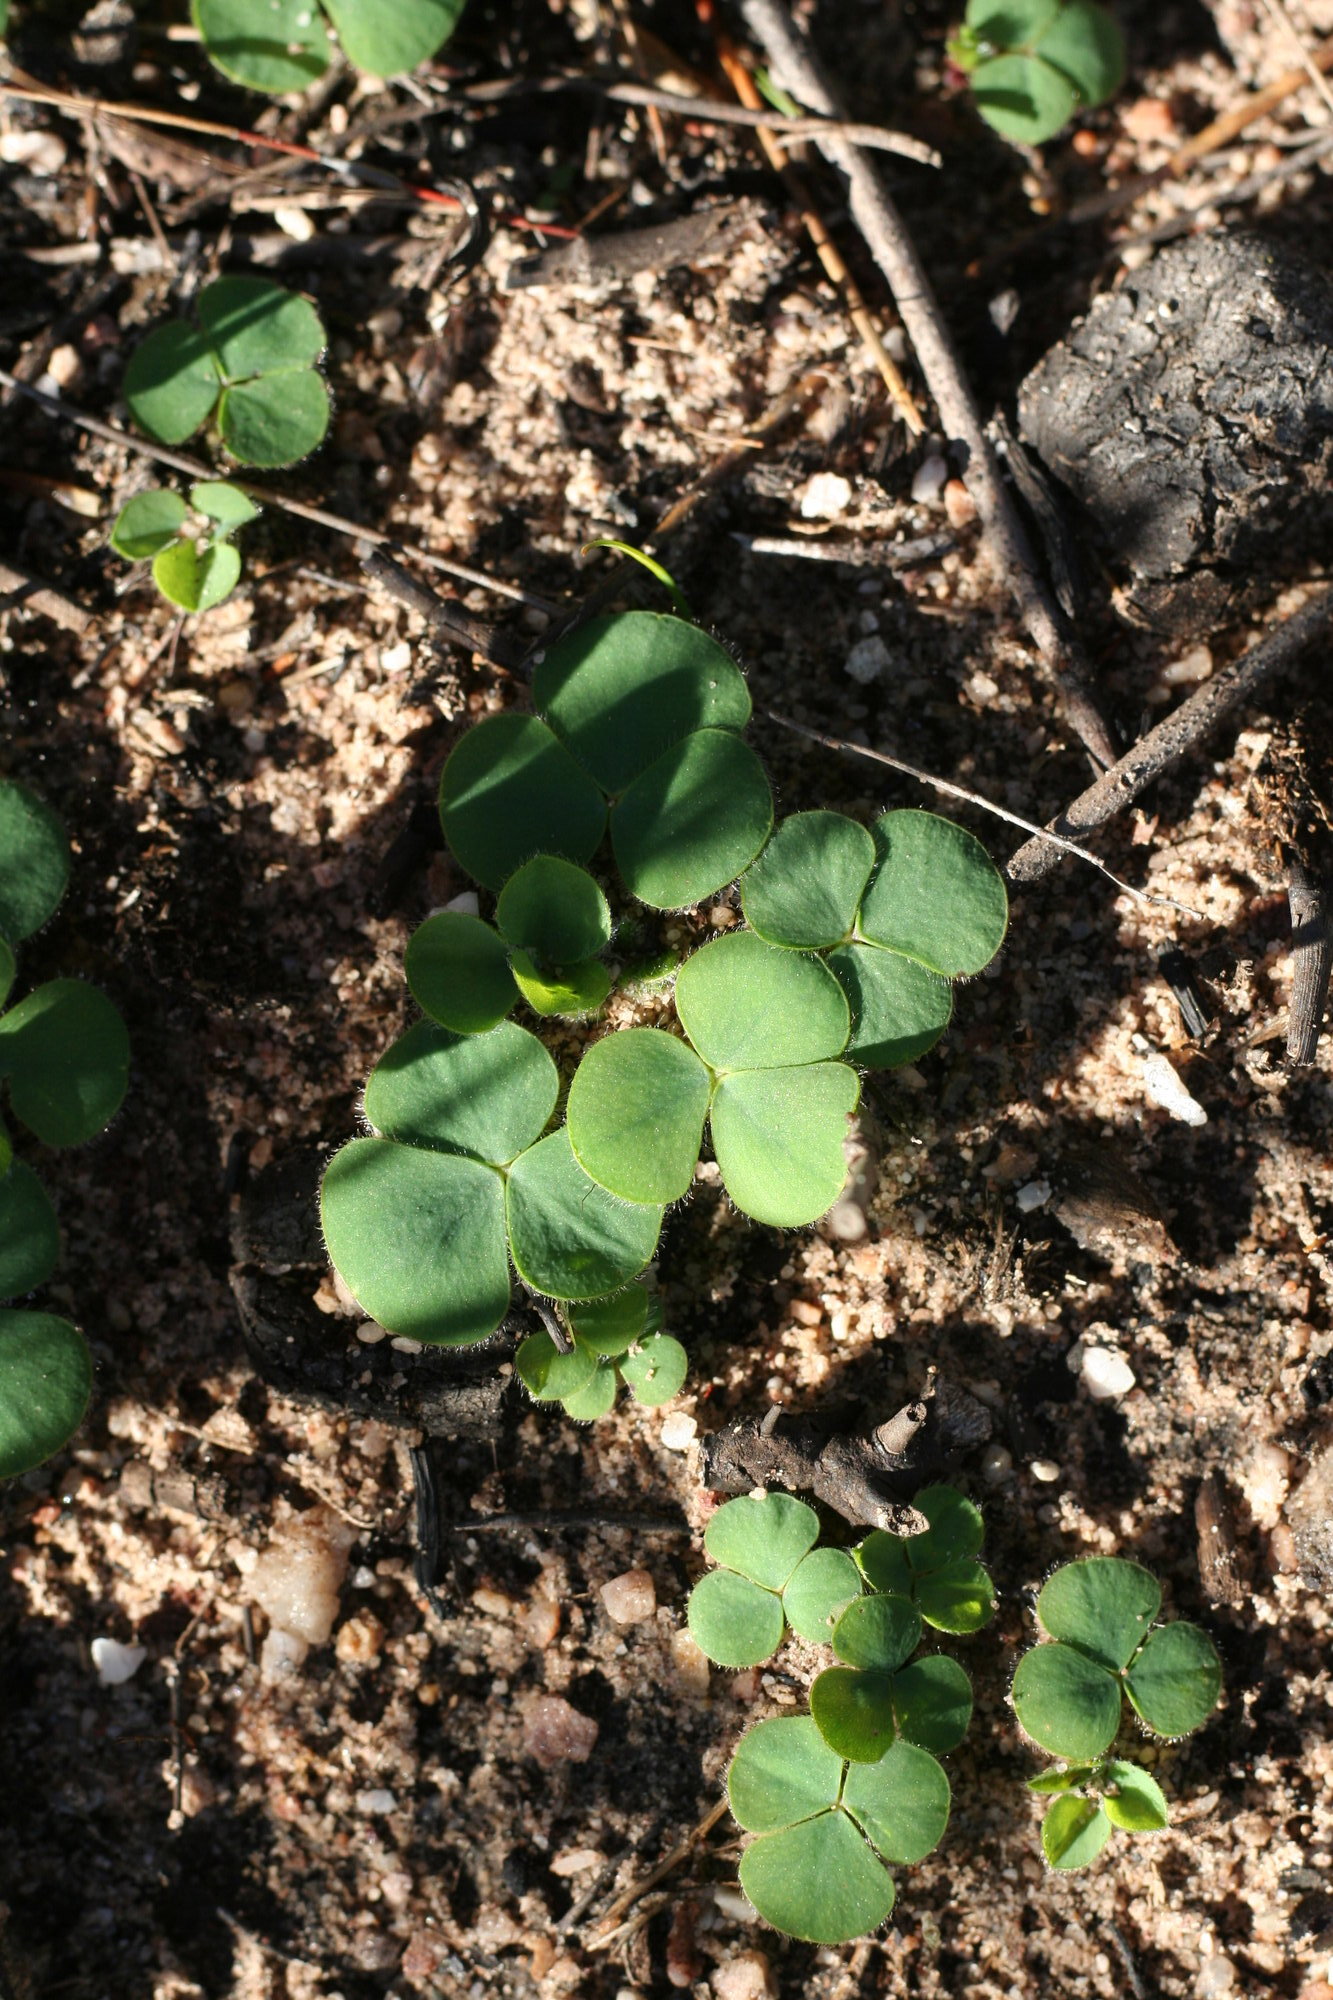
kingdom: Plantae
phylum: Tracheophyta
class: Magnoliopsida
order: Oxalidales
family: Oxalidaceae
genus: Oxalis
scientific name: Oxalis purpurea
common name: Purple woodsorrel
